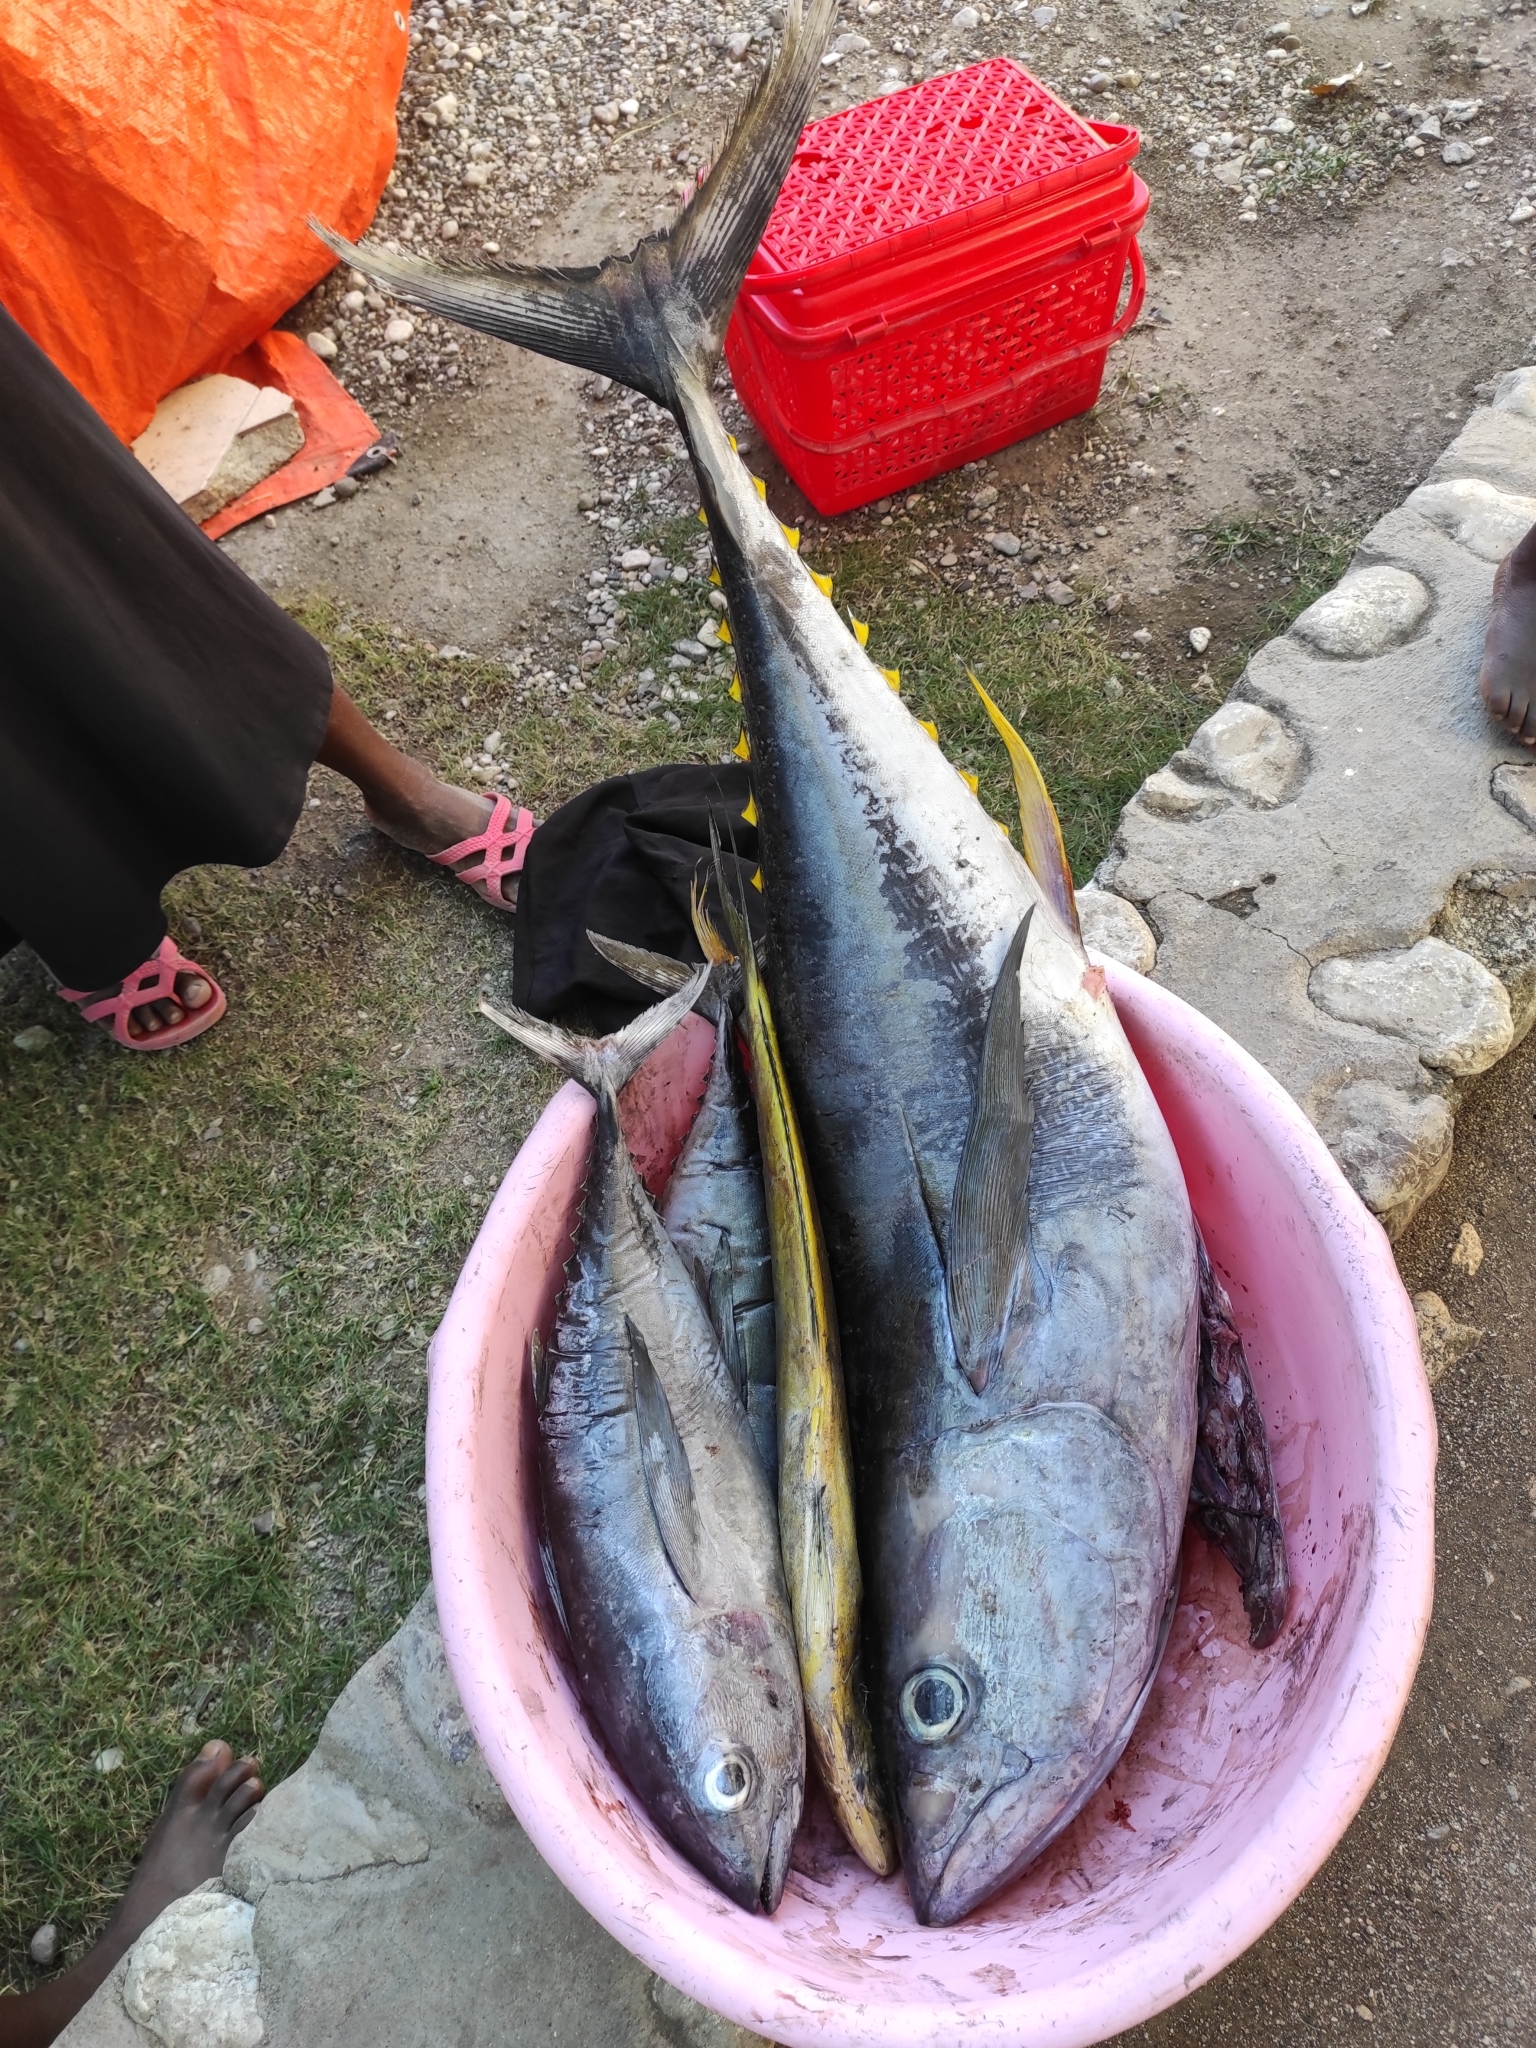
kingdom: Animalia
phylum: Chordata
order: Perciformes
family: Scombridae
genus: Thunnus
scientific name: Thunnus albacares
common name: Yellowfin tuna
